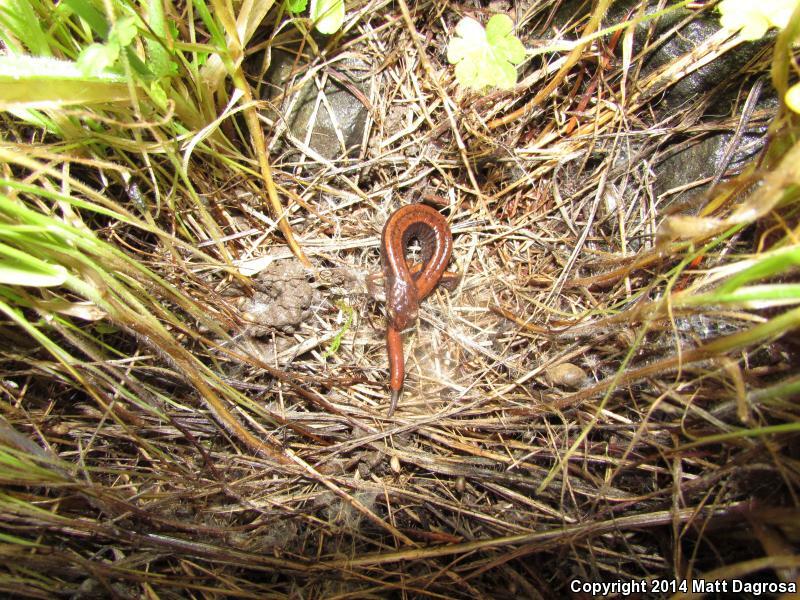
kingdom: Animalia
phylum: Chordata
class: Amphibia
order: Caudata
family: Plethodontidae
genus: Plethodon
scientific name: Plethodon vehiculum
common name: Western red-backed salamander
